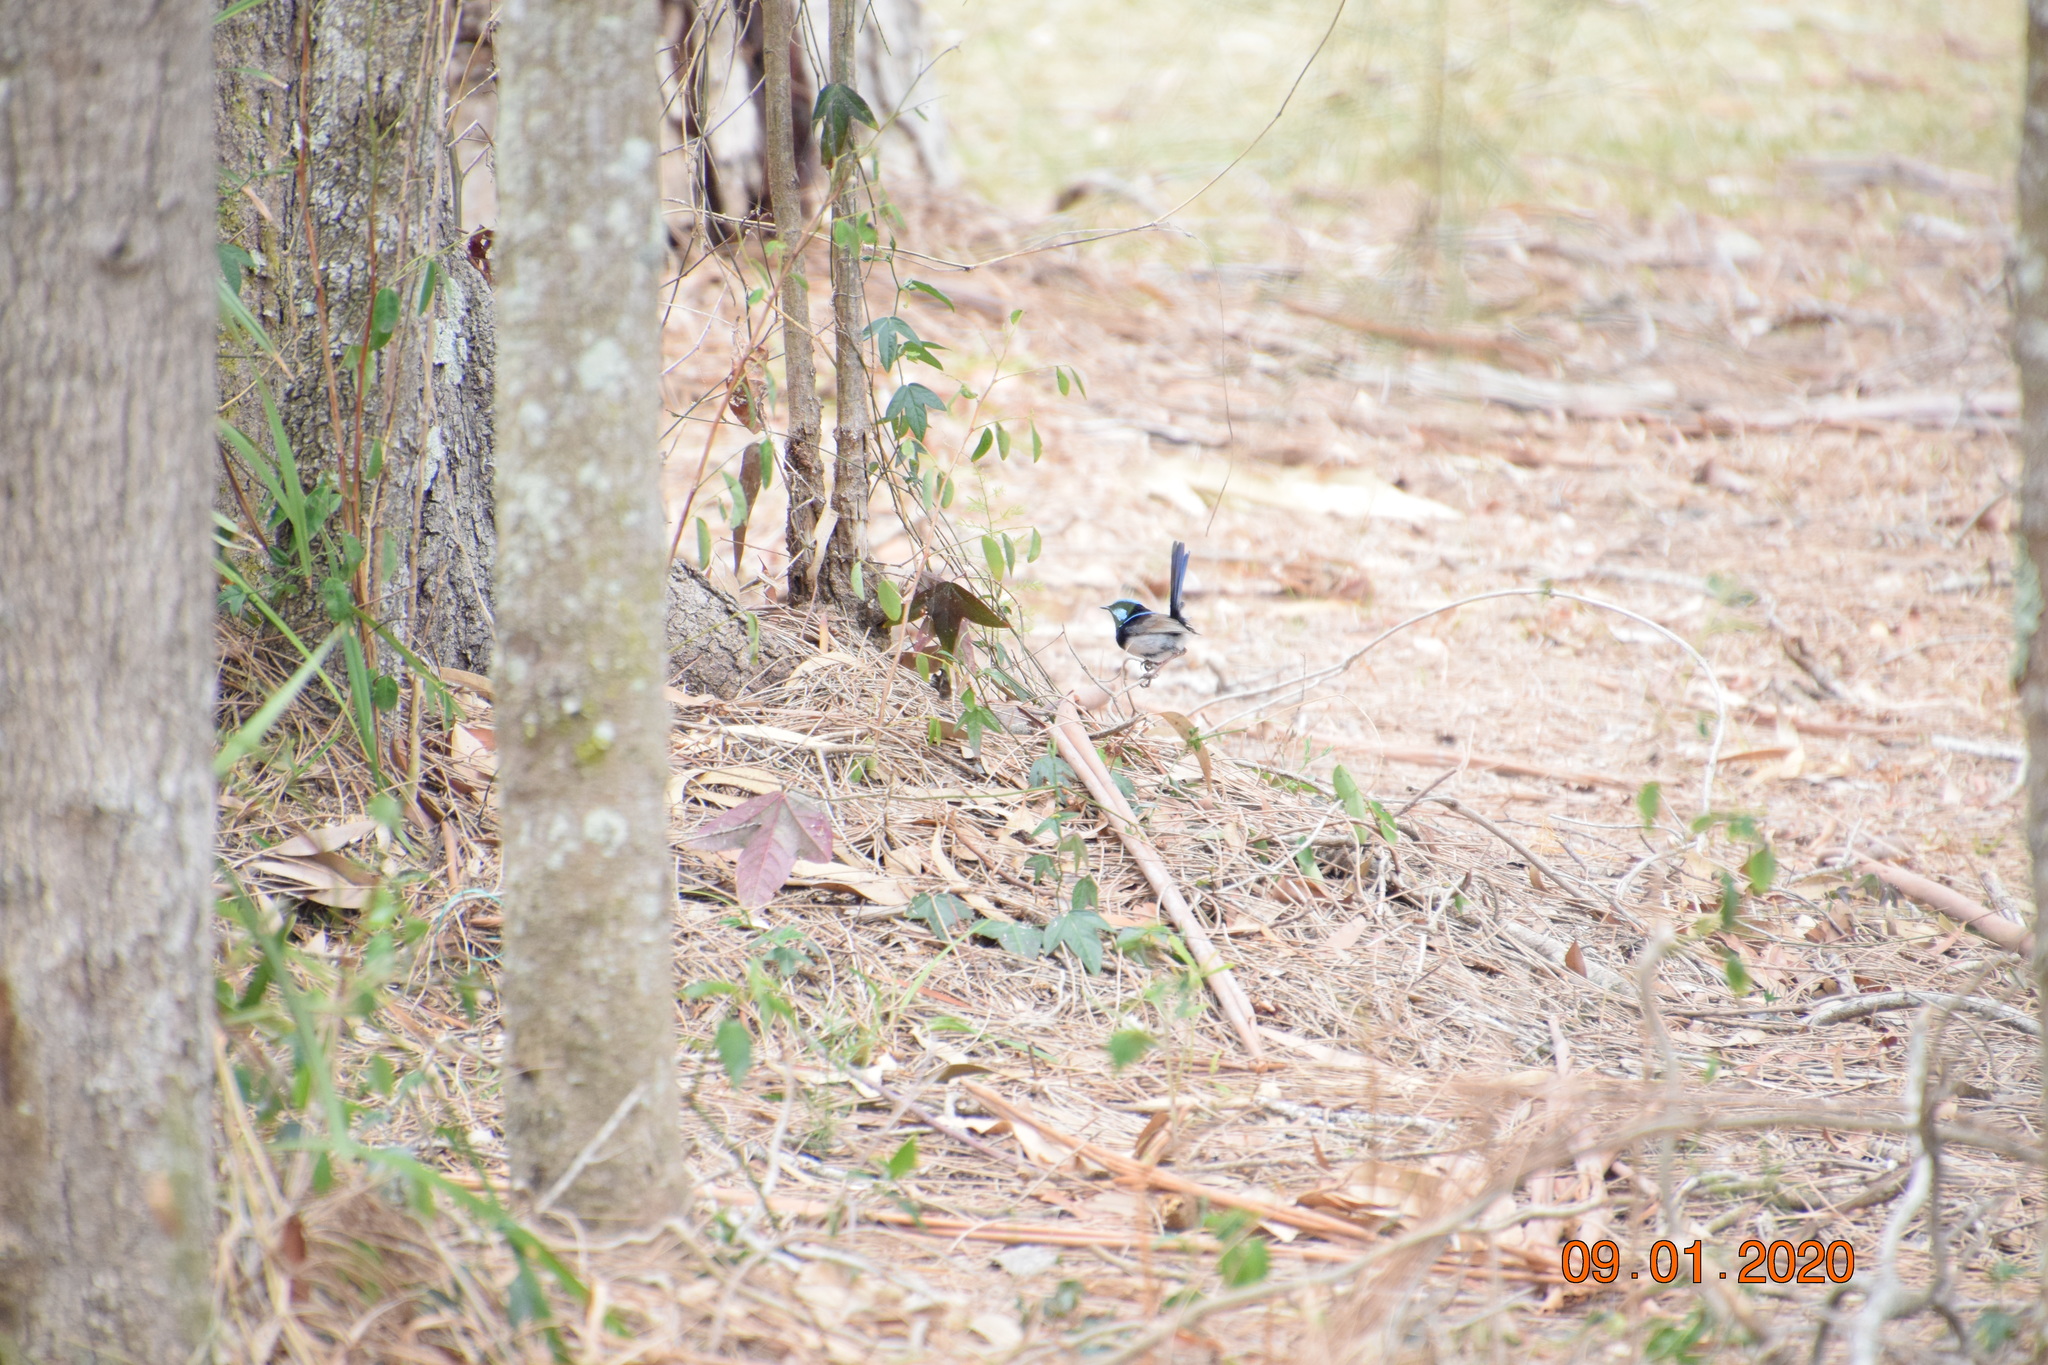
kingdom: Animalia
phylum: Chordata
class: Aves
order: Passeriformes
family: Maluridae
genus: Malurus
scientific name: Malurus cyaneus
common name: Superb fairywren
